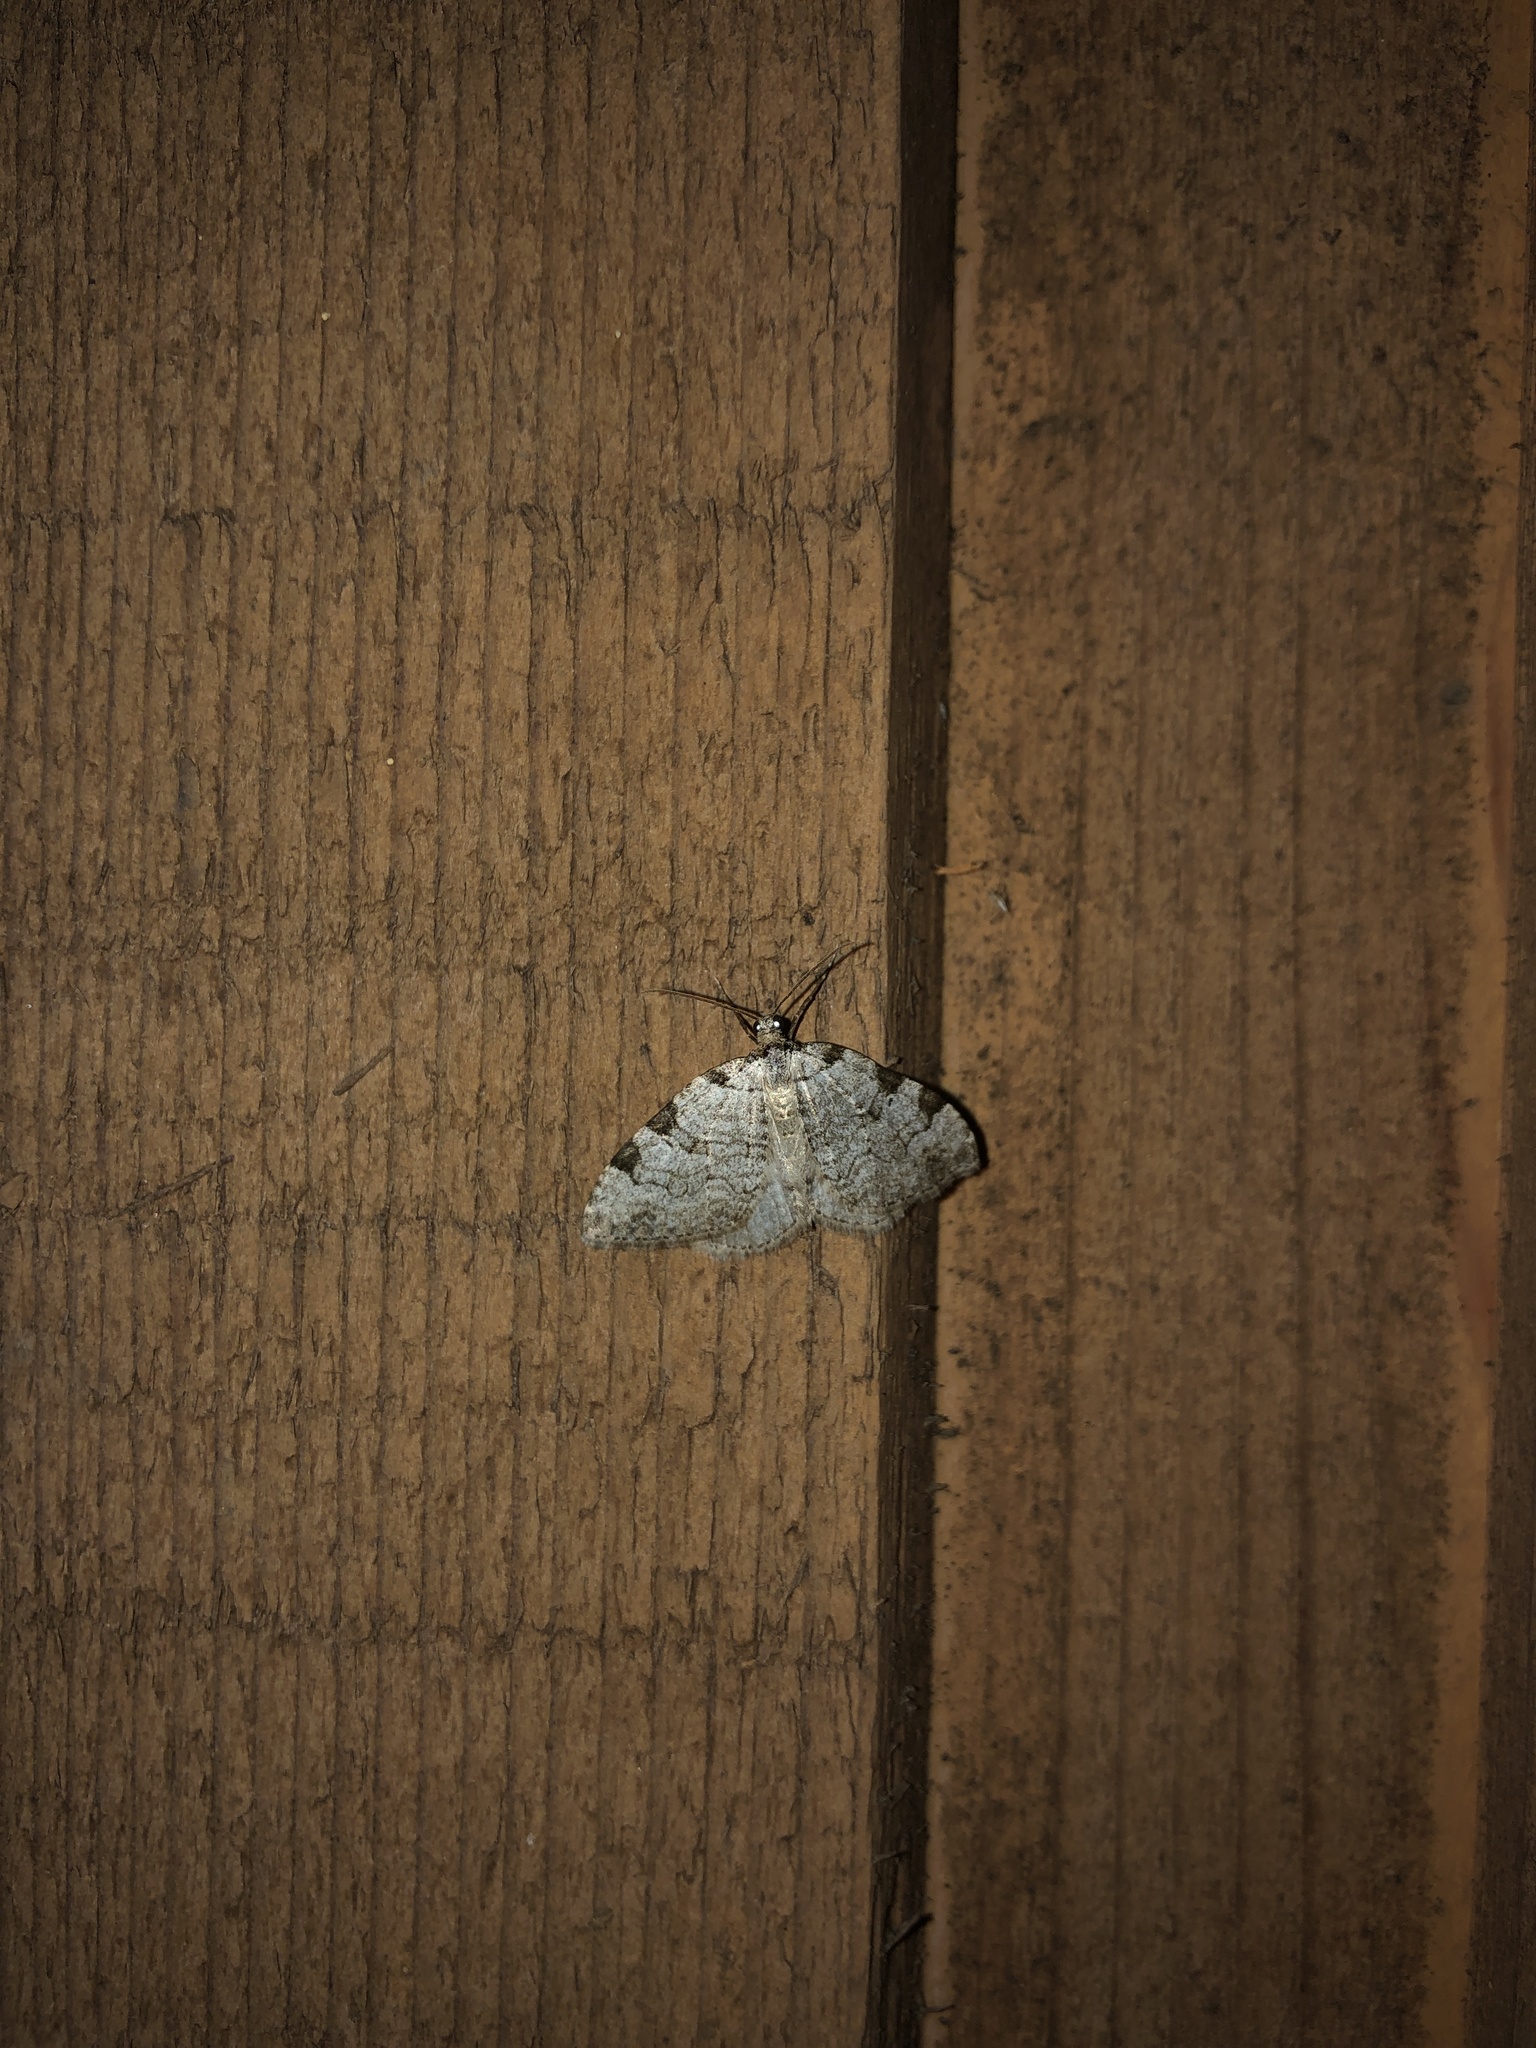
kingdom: Animalia
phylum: Arthropoda
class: Insecta
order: Lepidoptera
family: Geometridae
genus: Perizoma
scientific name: Perizoma costiguttata
